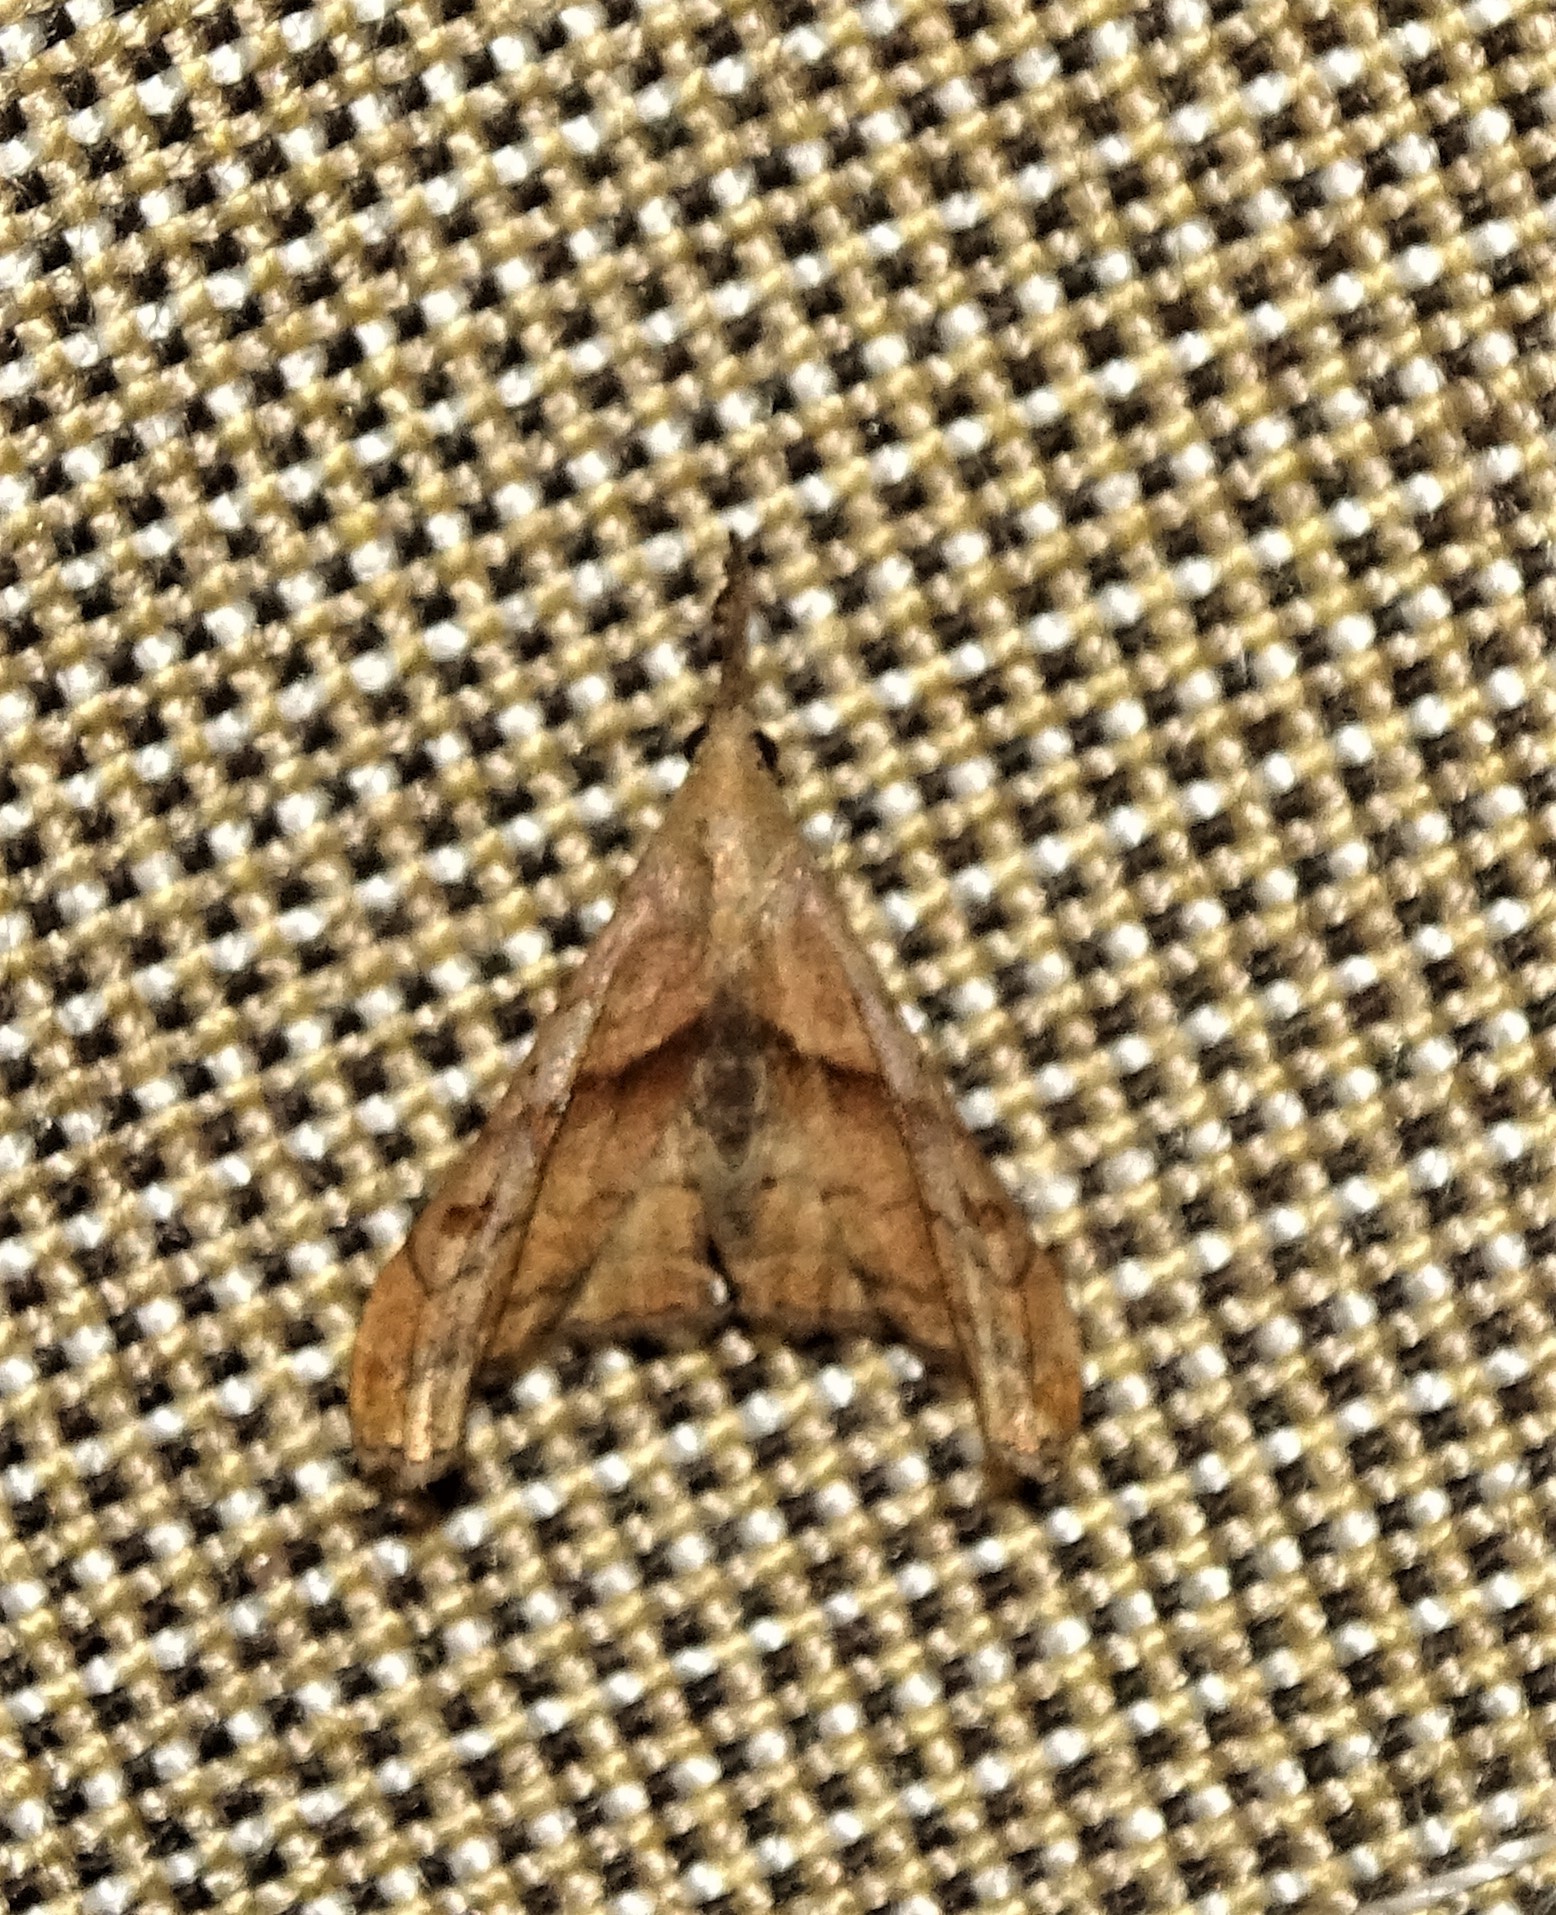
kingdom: Animalia
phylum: Arthropoda
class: Insecta
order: Lepidoptera
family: Erebidae
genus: Palthis
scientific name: Palthis angulalis
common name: Dark-spotted palthis moth
